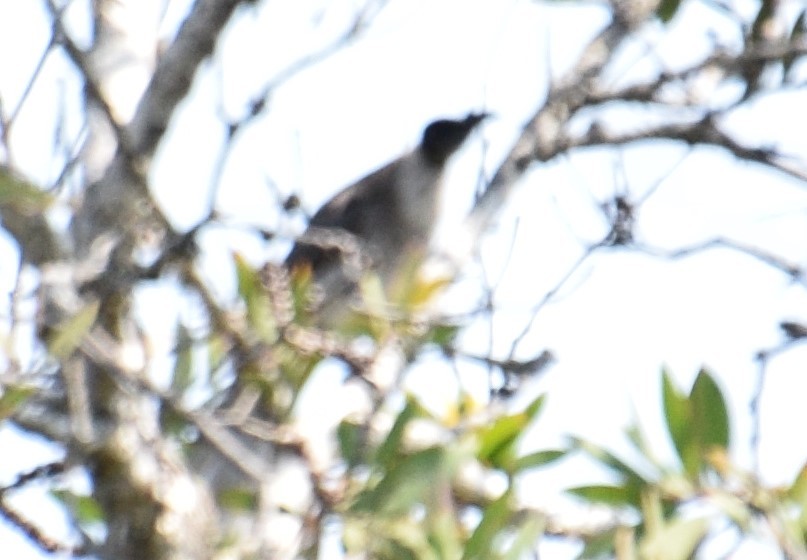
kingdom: Animalia
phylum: Chordata
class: Aves
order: Passeriformes
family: Meliphagidae
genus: Philemon
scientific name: Philemon corniculatus
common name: Noisy friarbird
